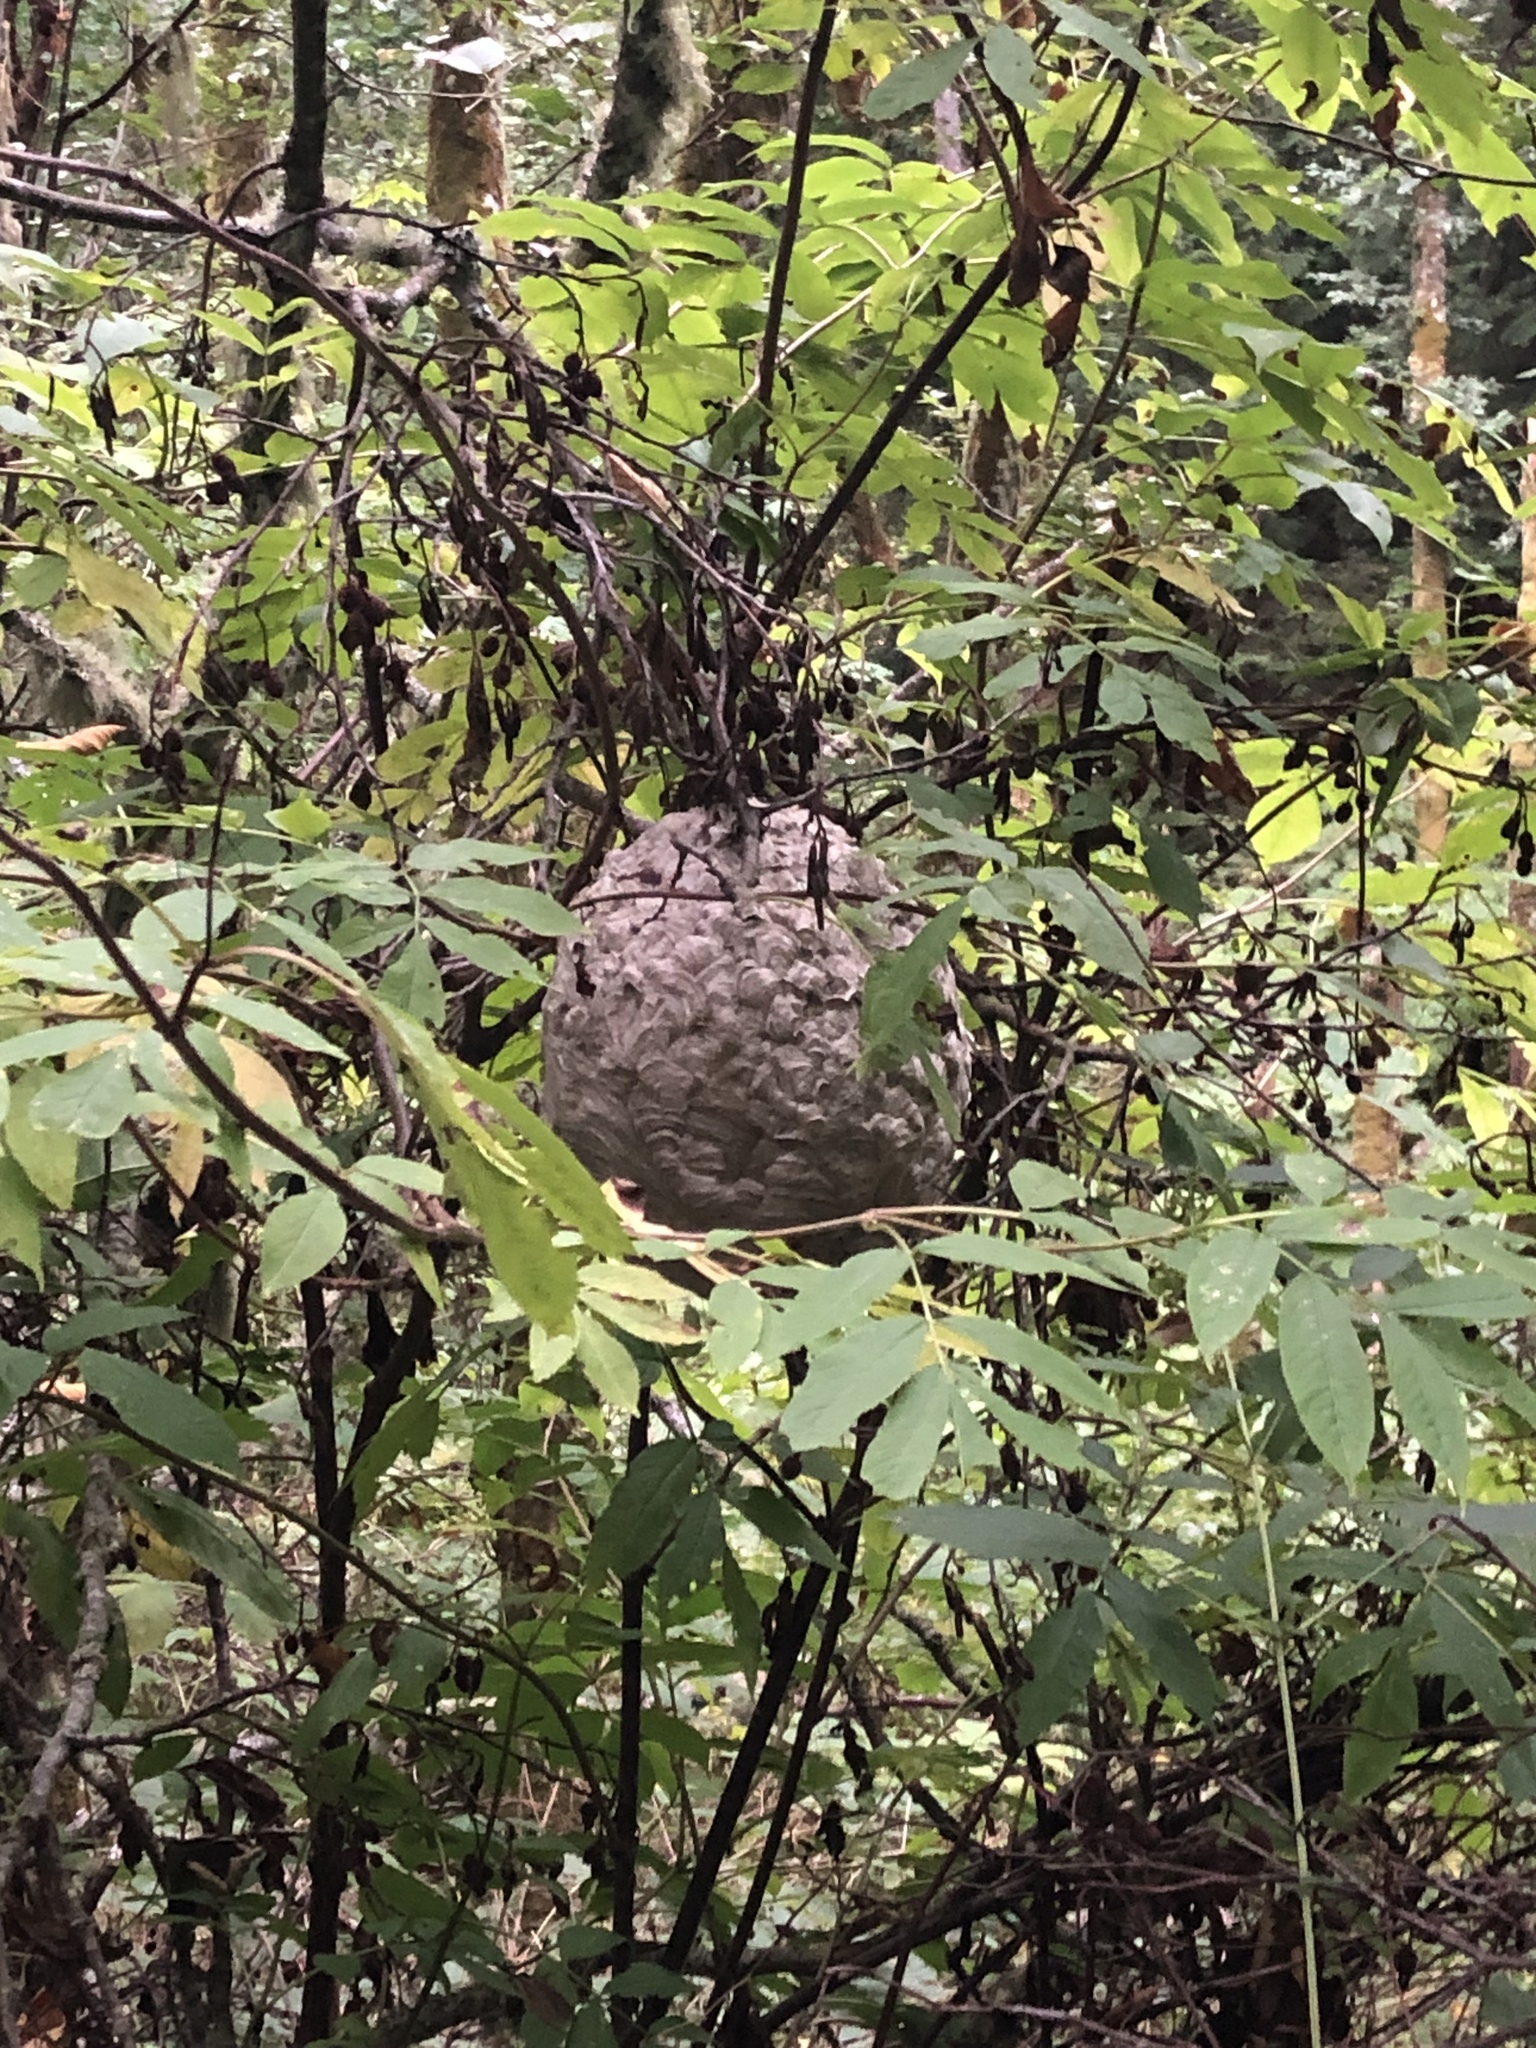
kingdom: Plantae
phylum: Tracheophyta
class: Magnoliopsida
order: Dipsacales
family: Viburnaceae
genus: Sambucus
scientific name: Sambucus racemosa
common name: Red-berried elder
